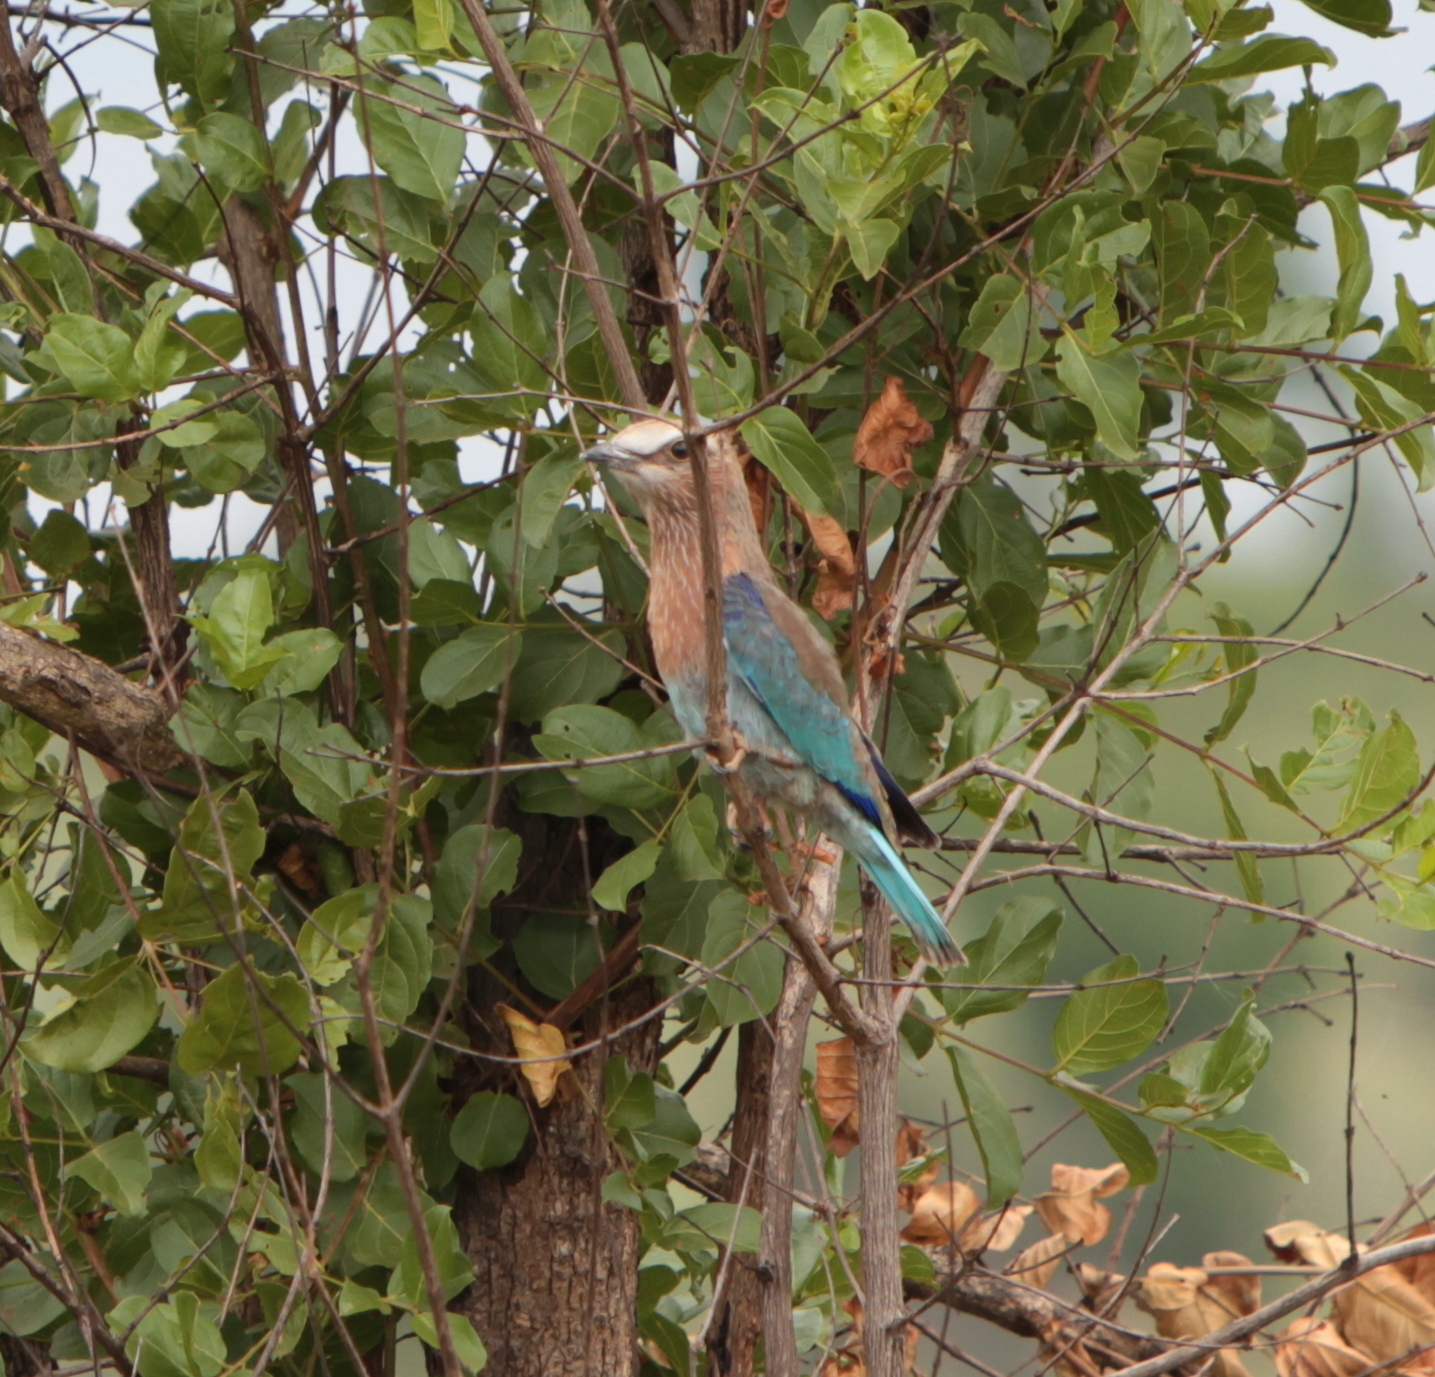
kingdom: Animalia
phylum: Chordata
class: Aves
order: Coraciiformes
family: Coraciidae
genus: Coracias
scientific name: Coracias caudatus
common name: Lilac-breasted roller
